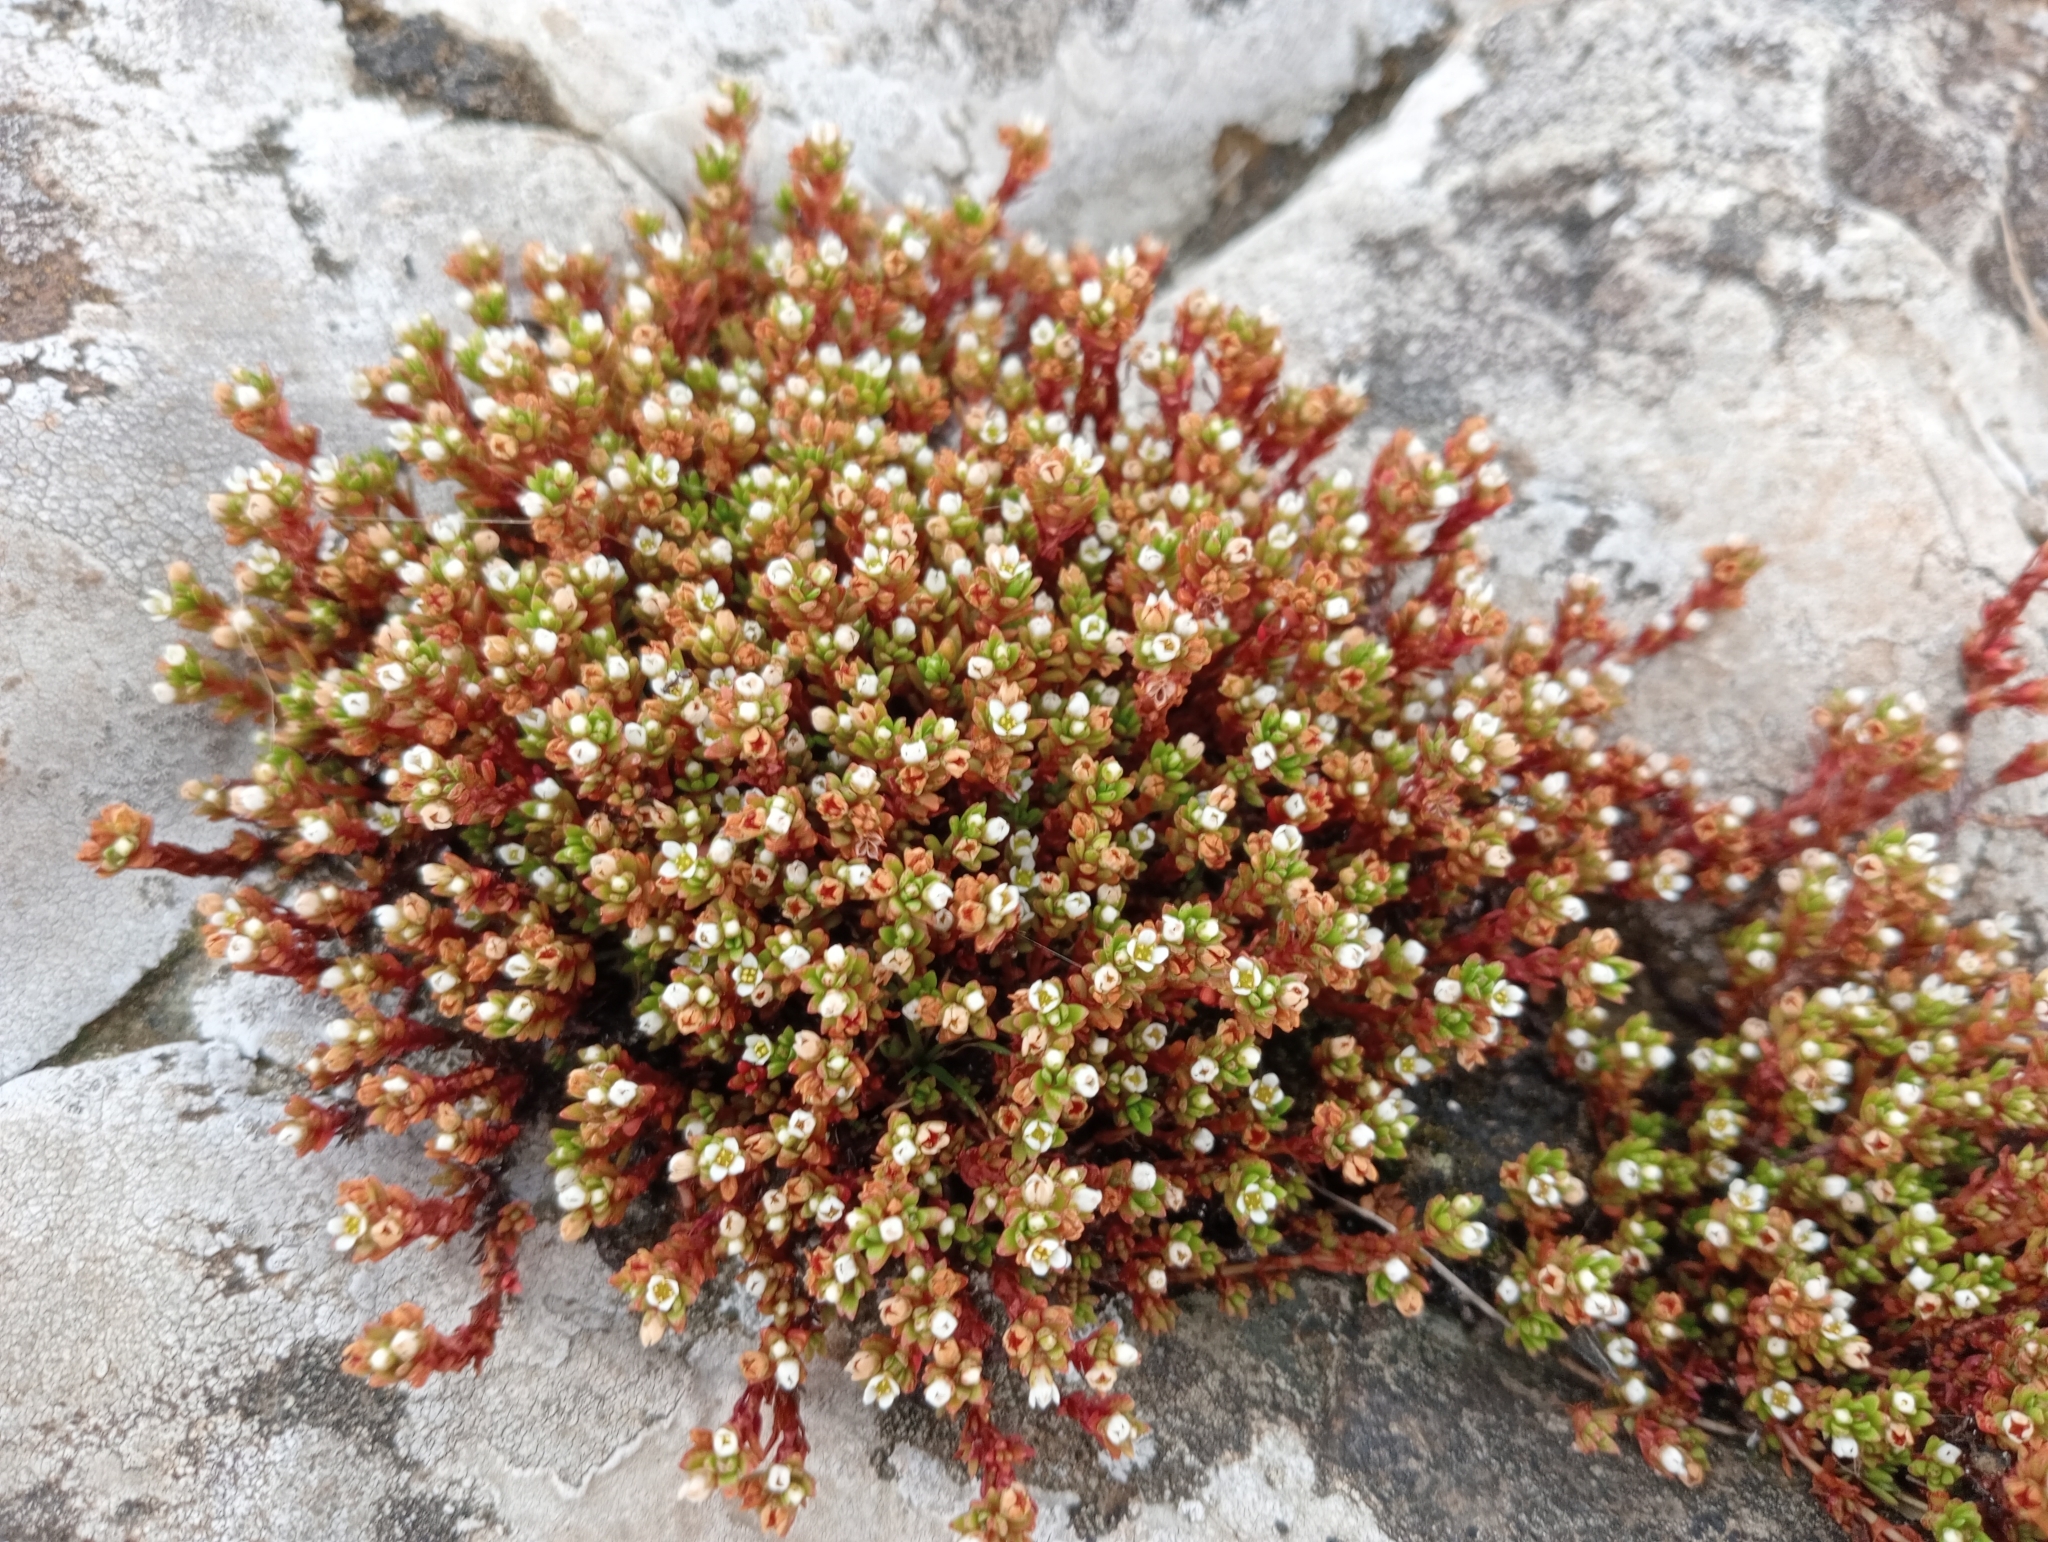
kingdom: Plantae
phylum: Tracheophyta
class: Magnoliopsida
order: Saxifragales
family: Crassulaceae
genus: Crassula
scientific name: Crassula moschata
